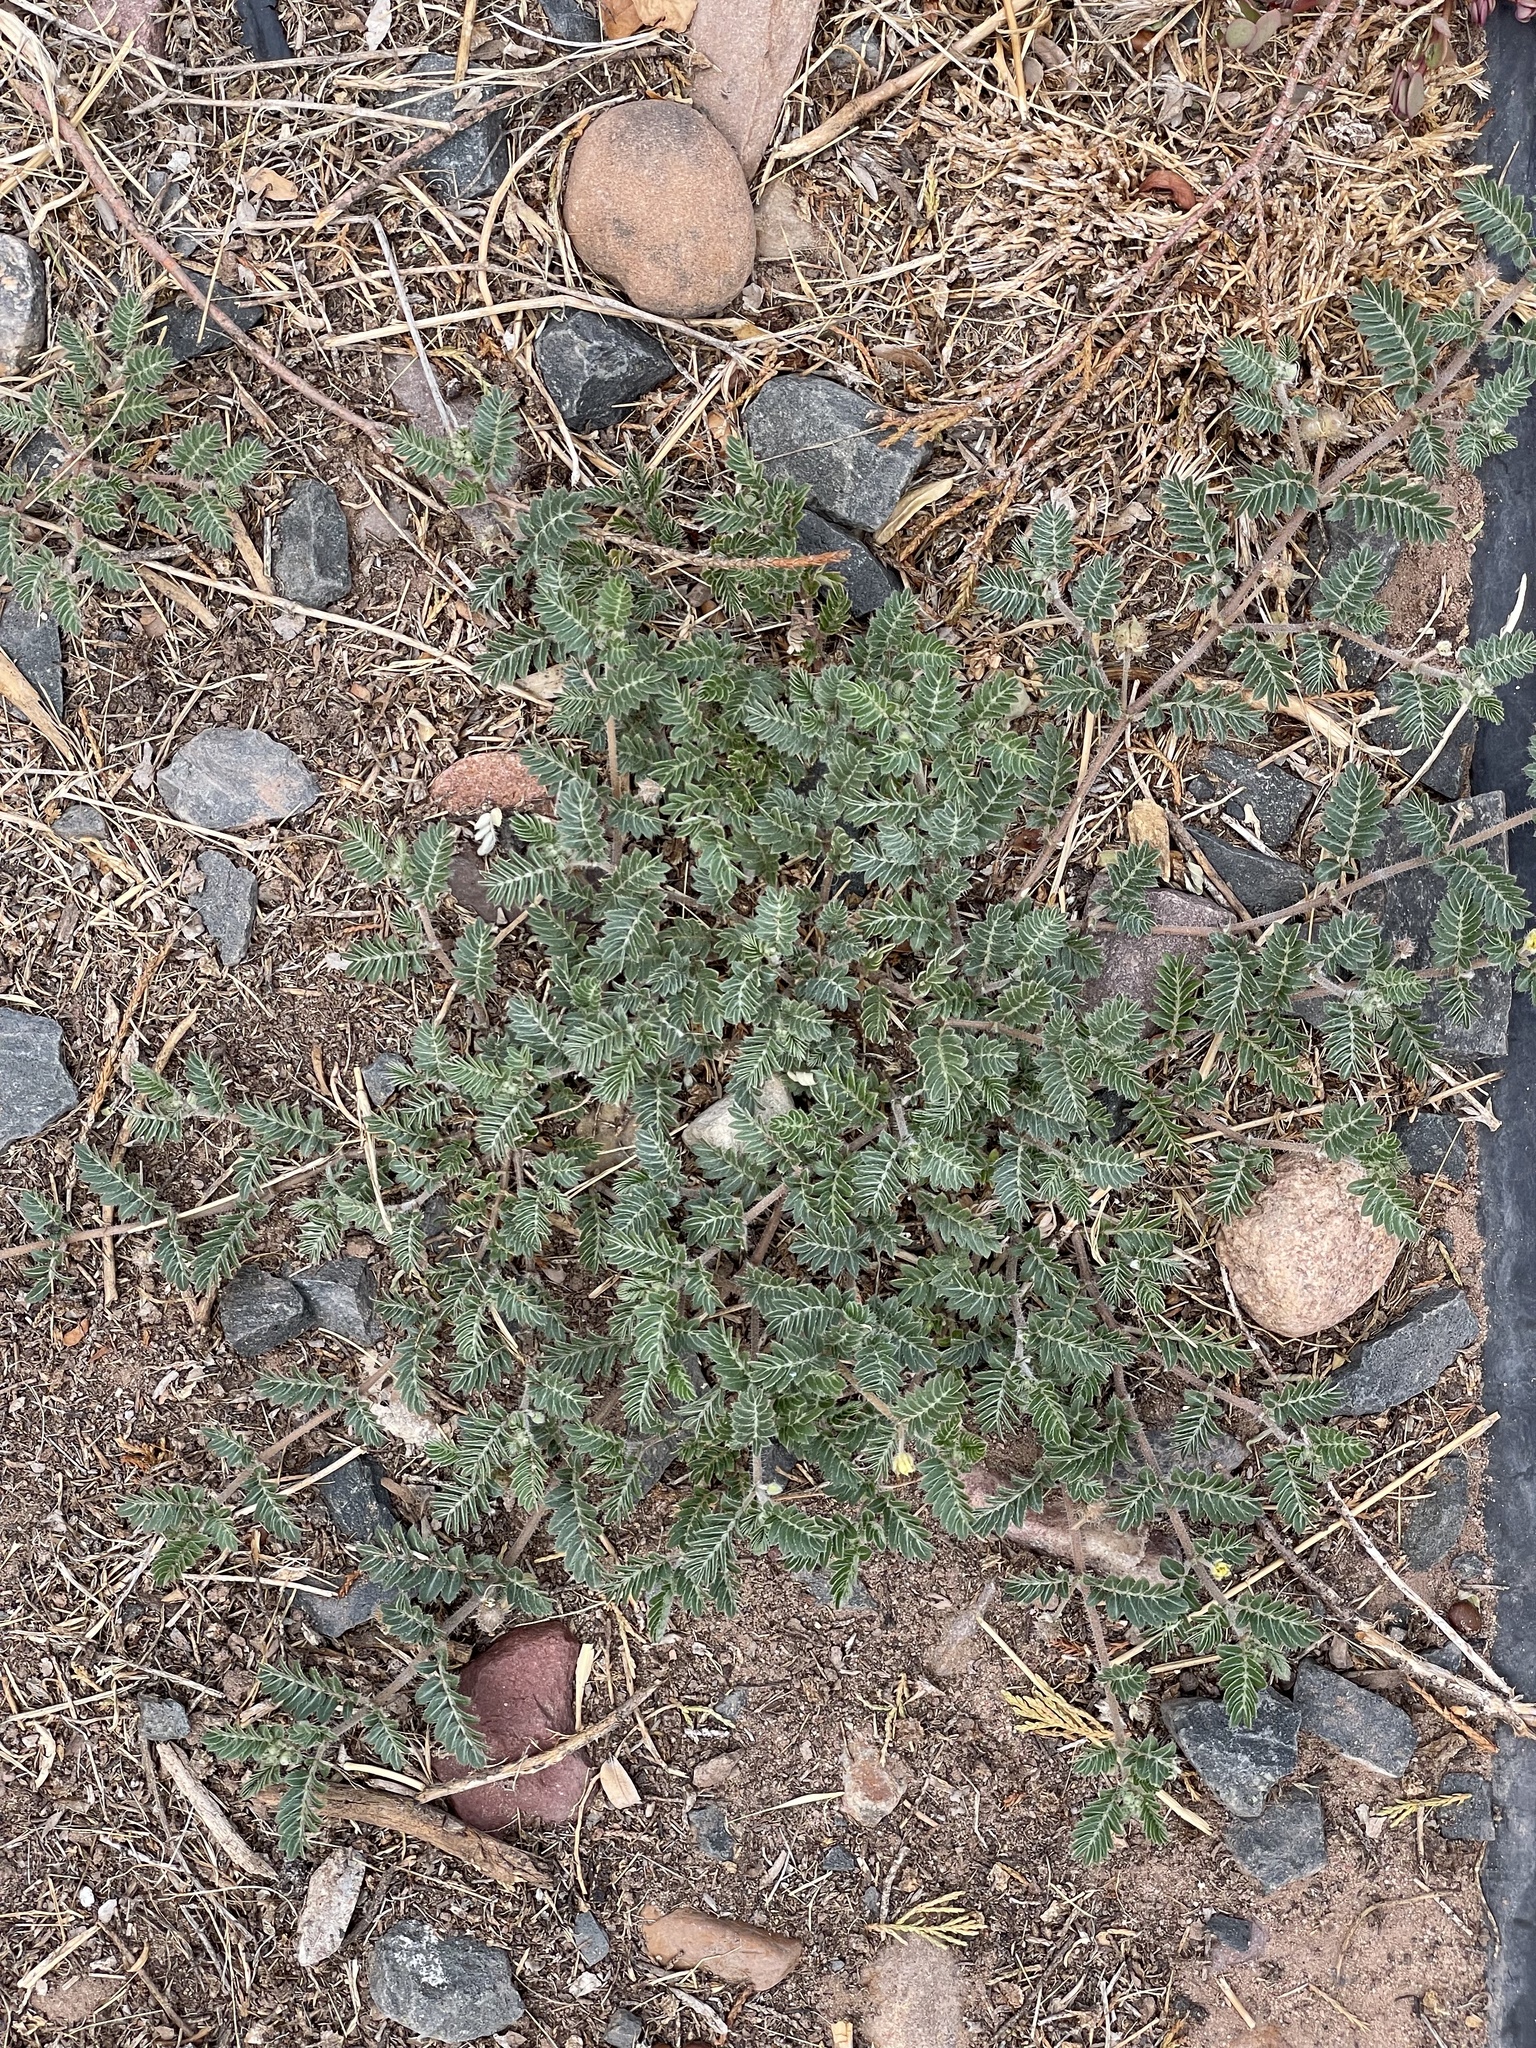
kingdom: Plantae
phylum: Tracheophyta
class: Magnoliopsida
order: Zygophyllales
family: Zygophyllaceae
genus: Tribulus
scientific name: Tribulus terrestris
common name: Puncturevine
